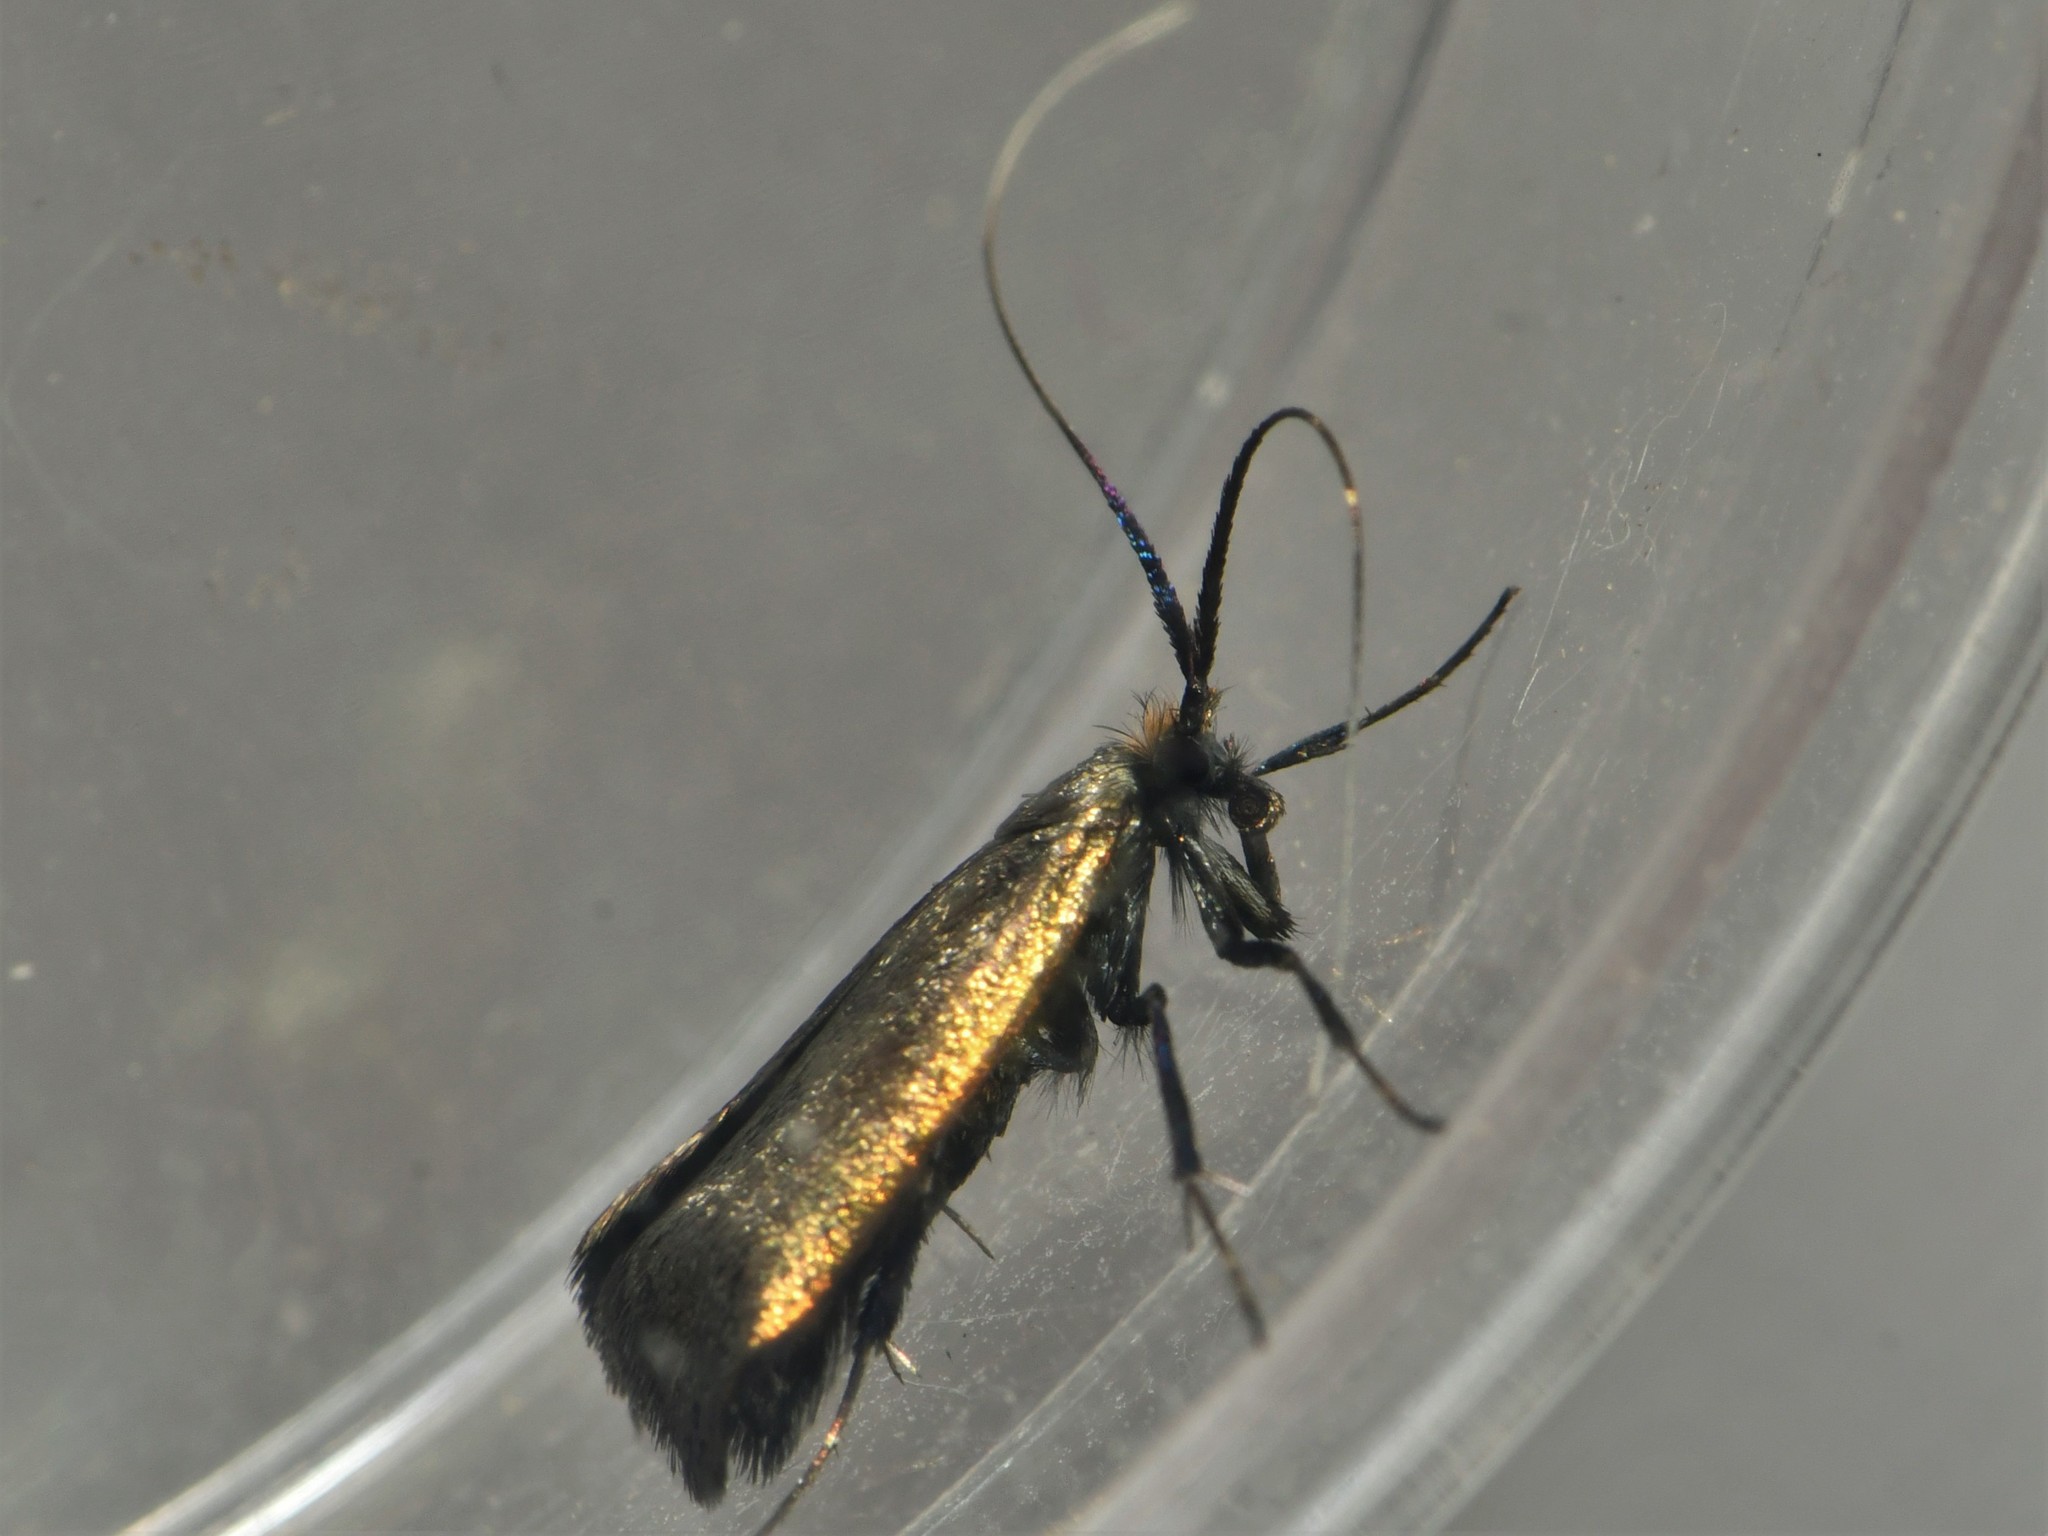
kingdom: Animalia
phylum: Arthropoda
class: Insecta
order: Lepidoptera
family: Adelidae
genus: Adela
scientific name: Adela viridella
